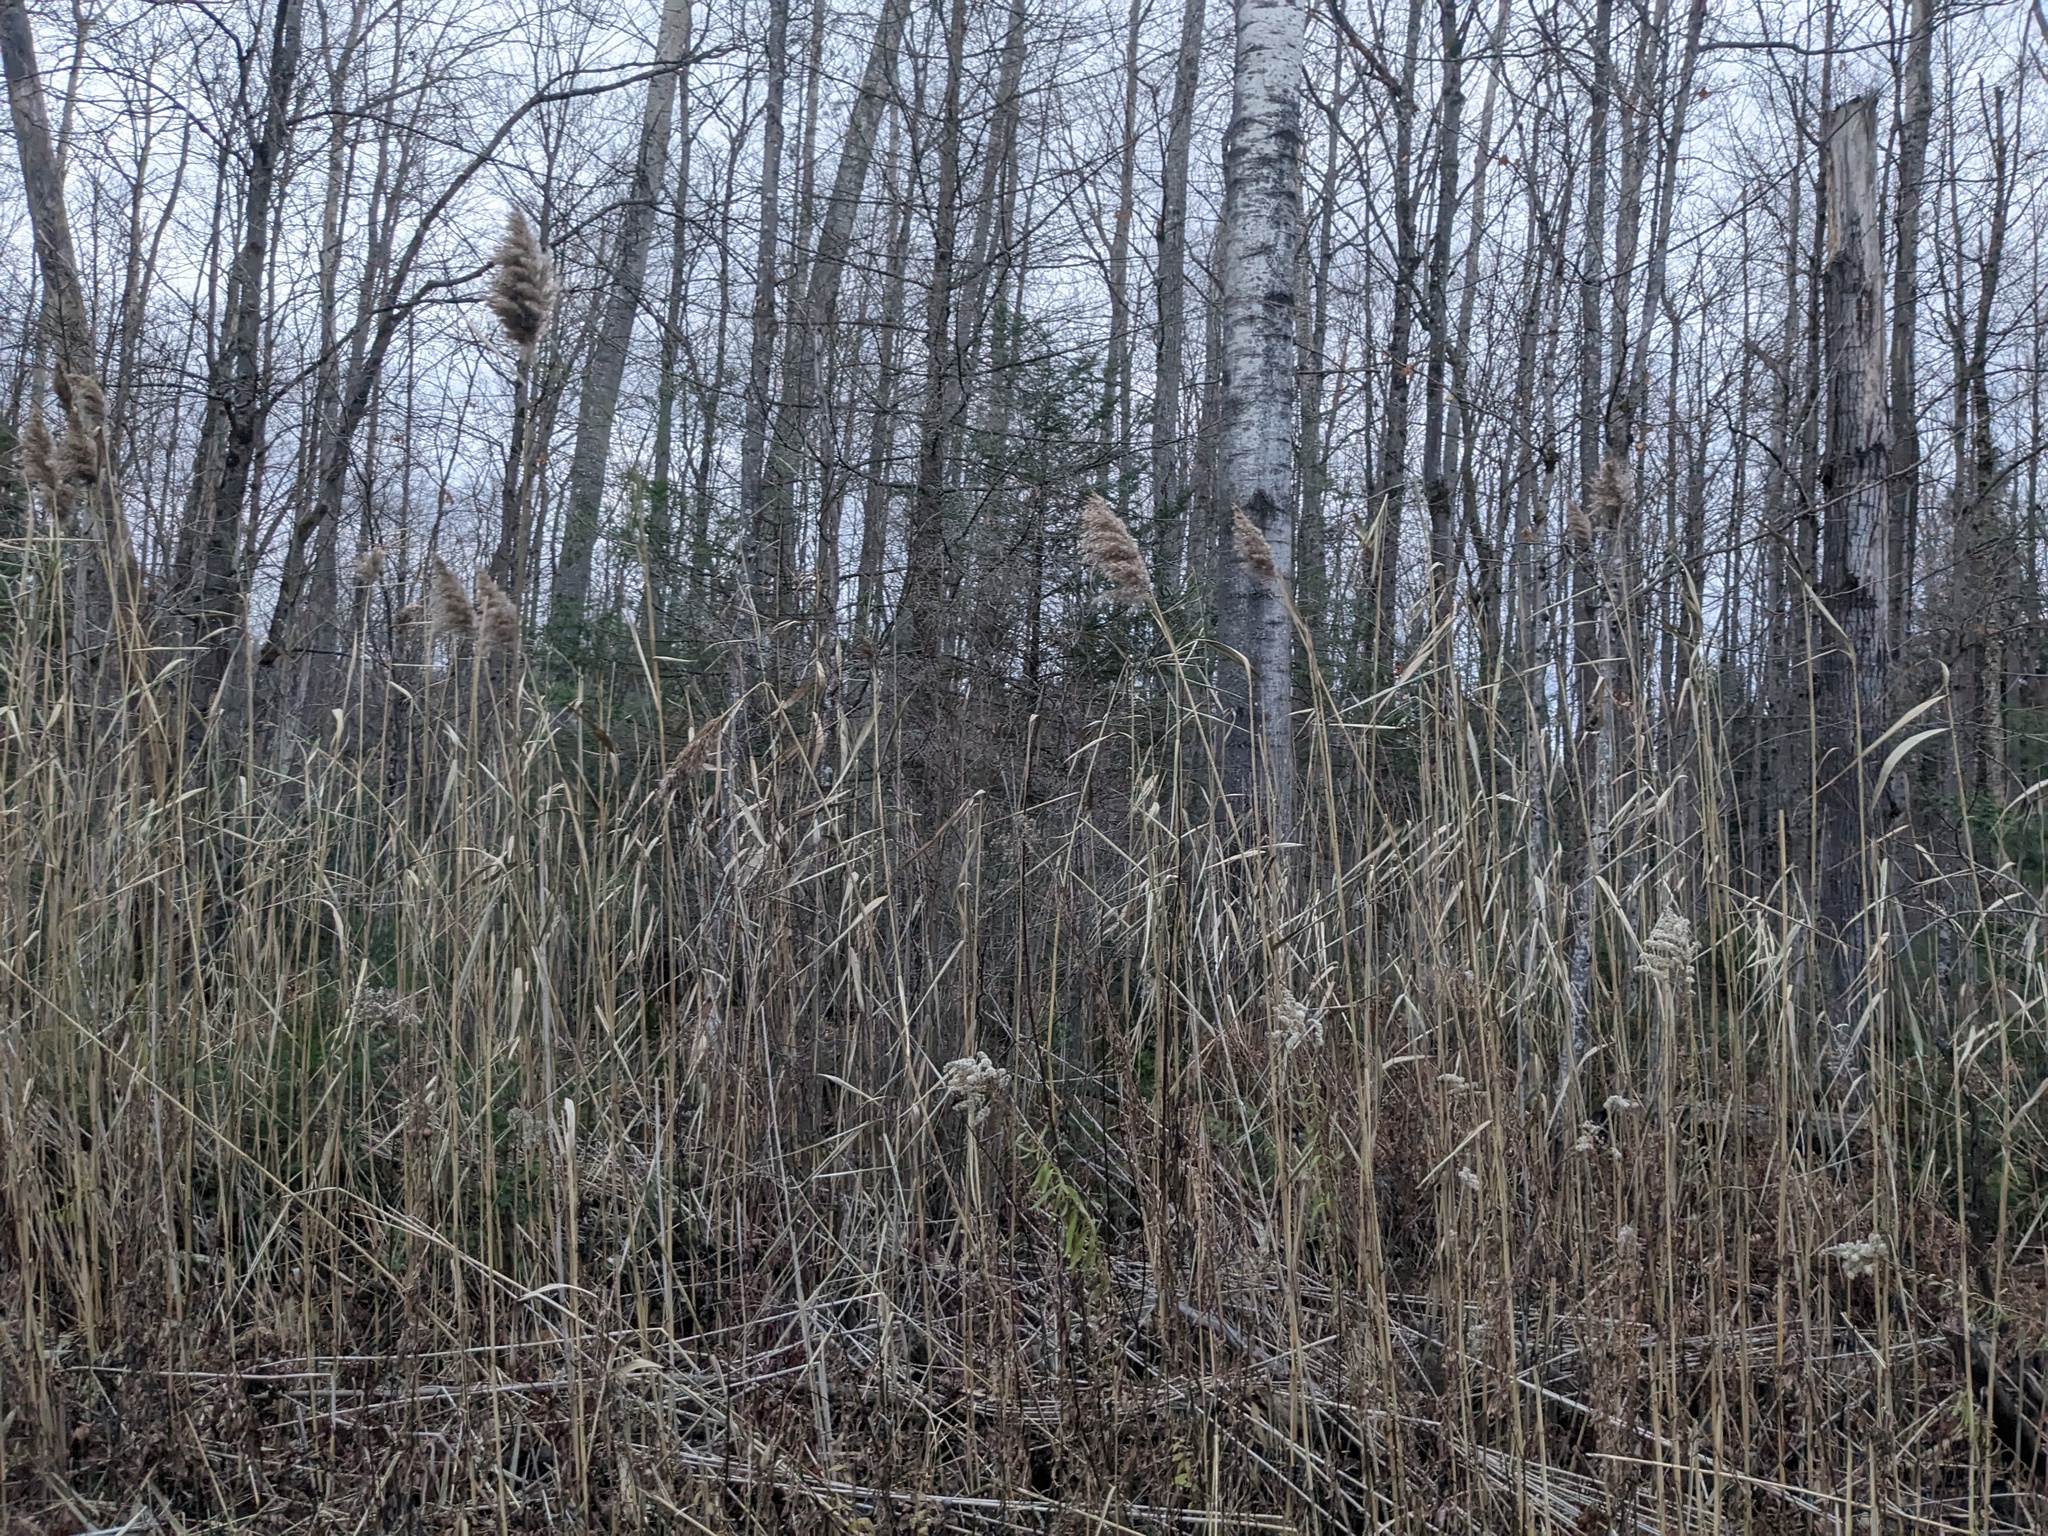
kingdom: Plantae
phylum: Tracheophyta
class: Liliopsida
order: Poales
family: Poaceae
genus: Phragmites
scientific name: Phragmites australis
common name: Common reed
